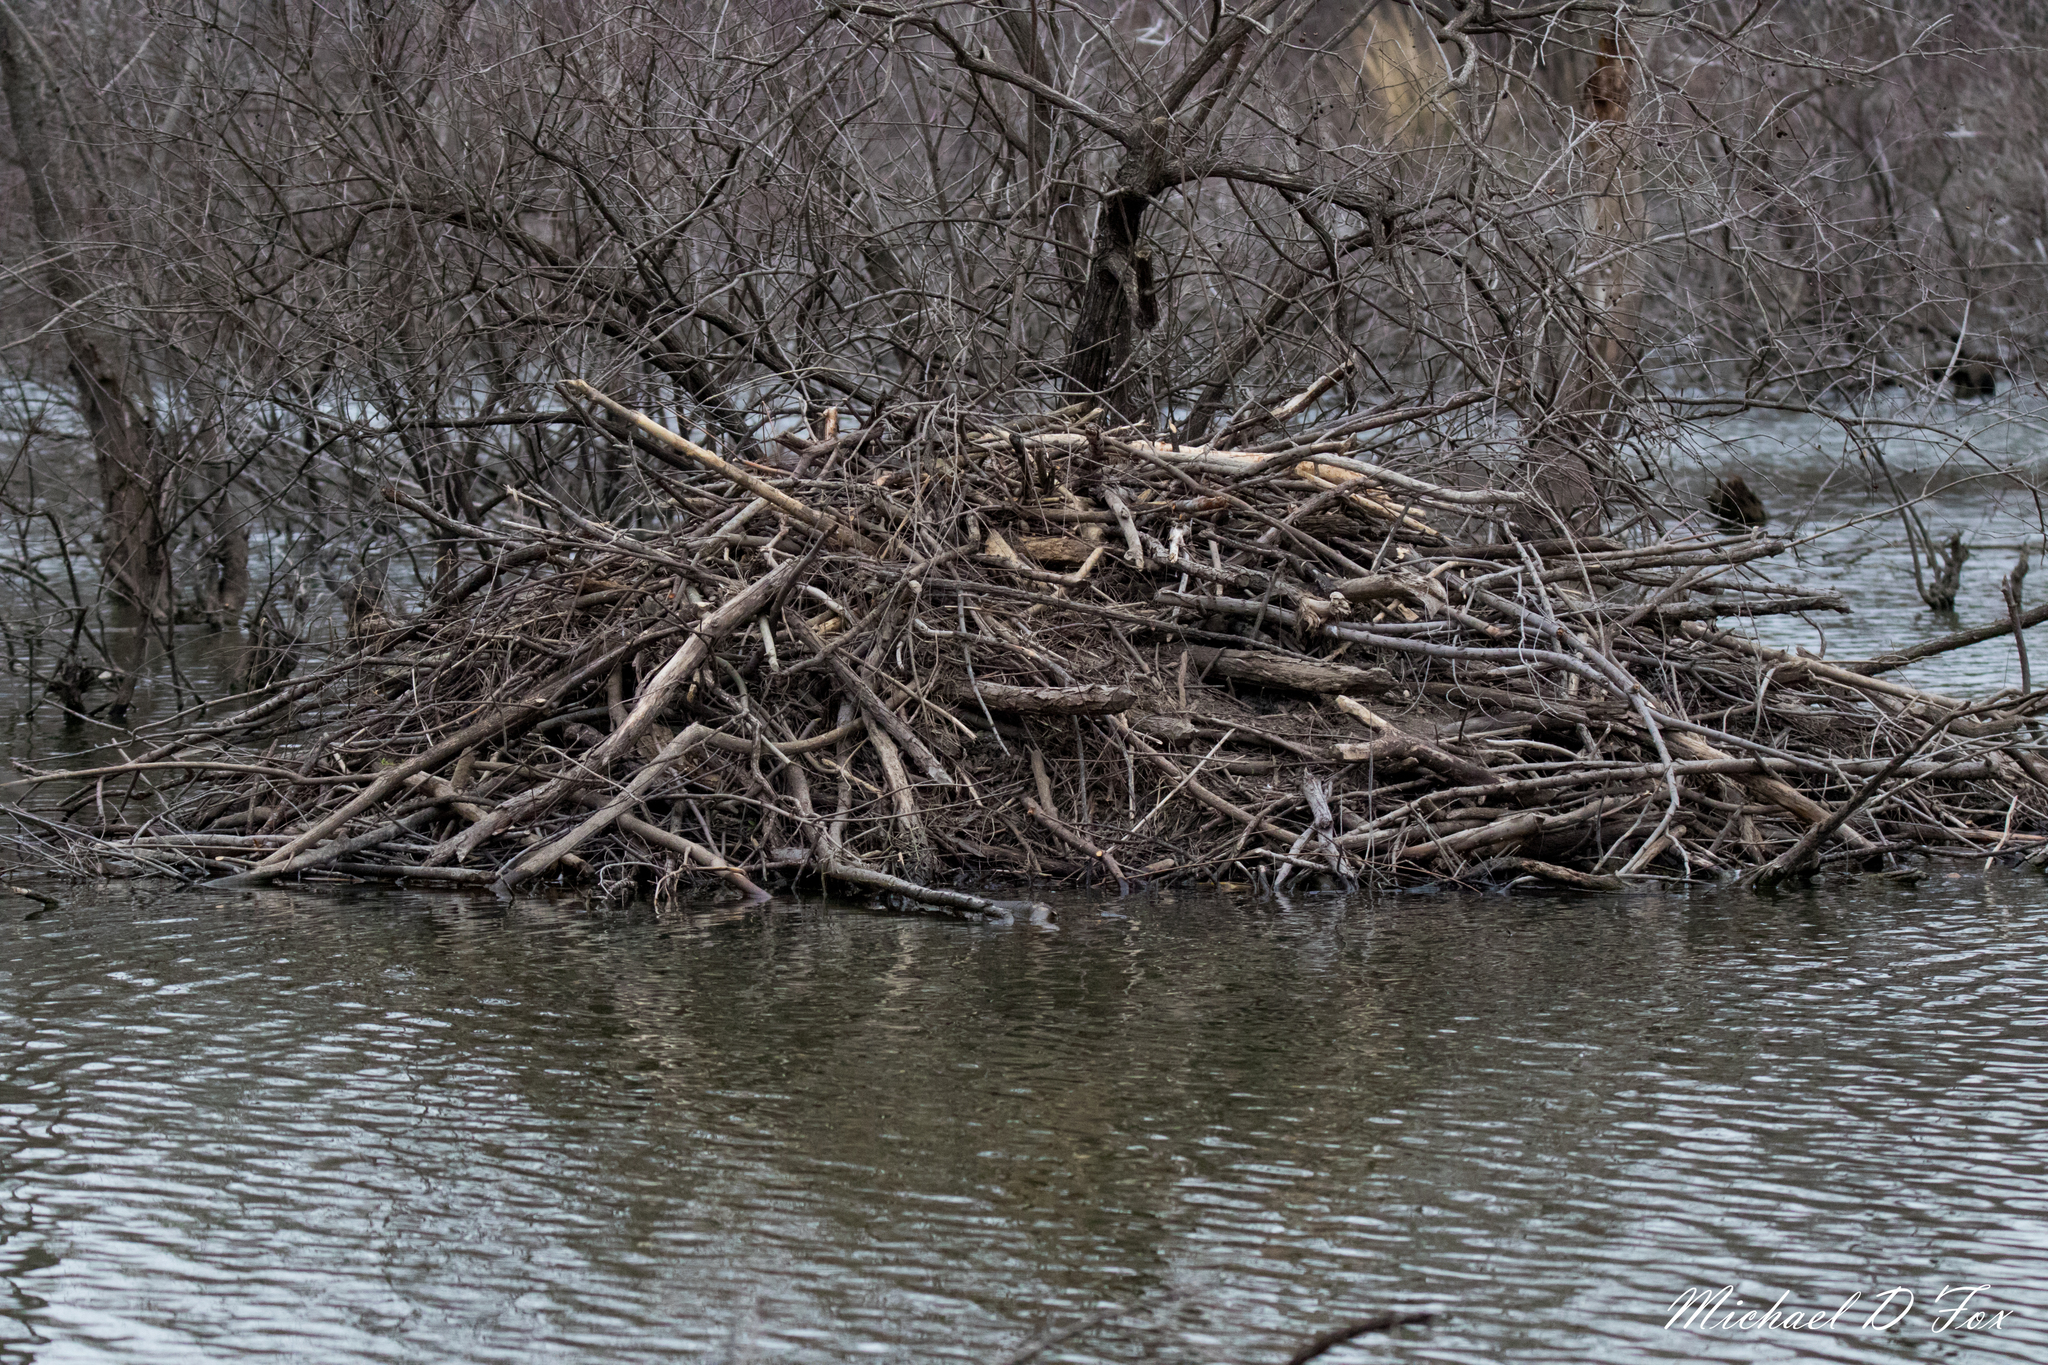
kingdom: Animalia
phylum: Chordata
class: Mammalia
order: Rodentia
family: Castoridae
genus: Castor
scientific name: Castor canadensis
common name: American beaver
